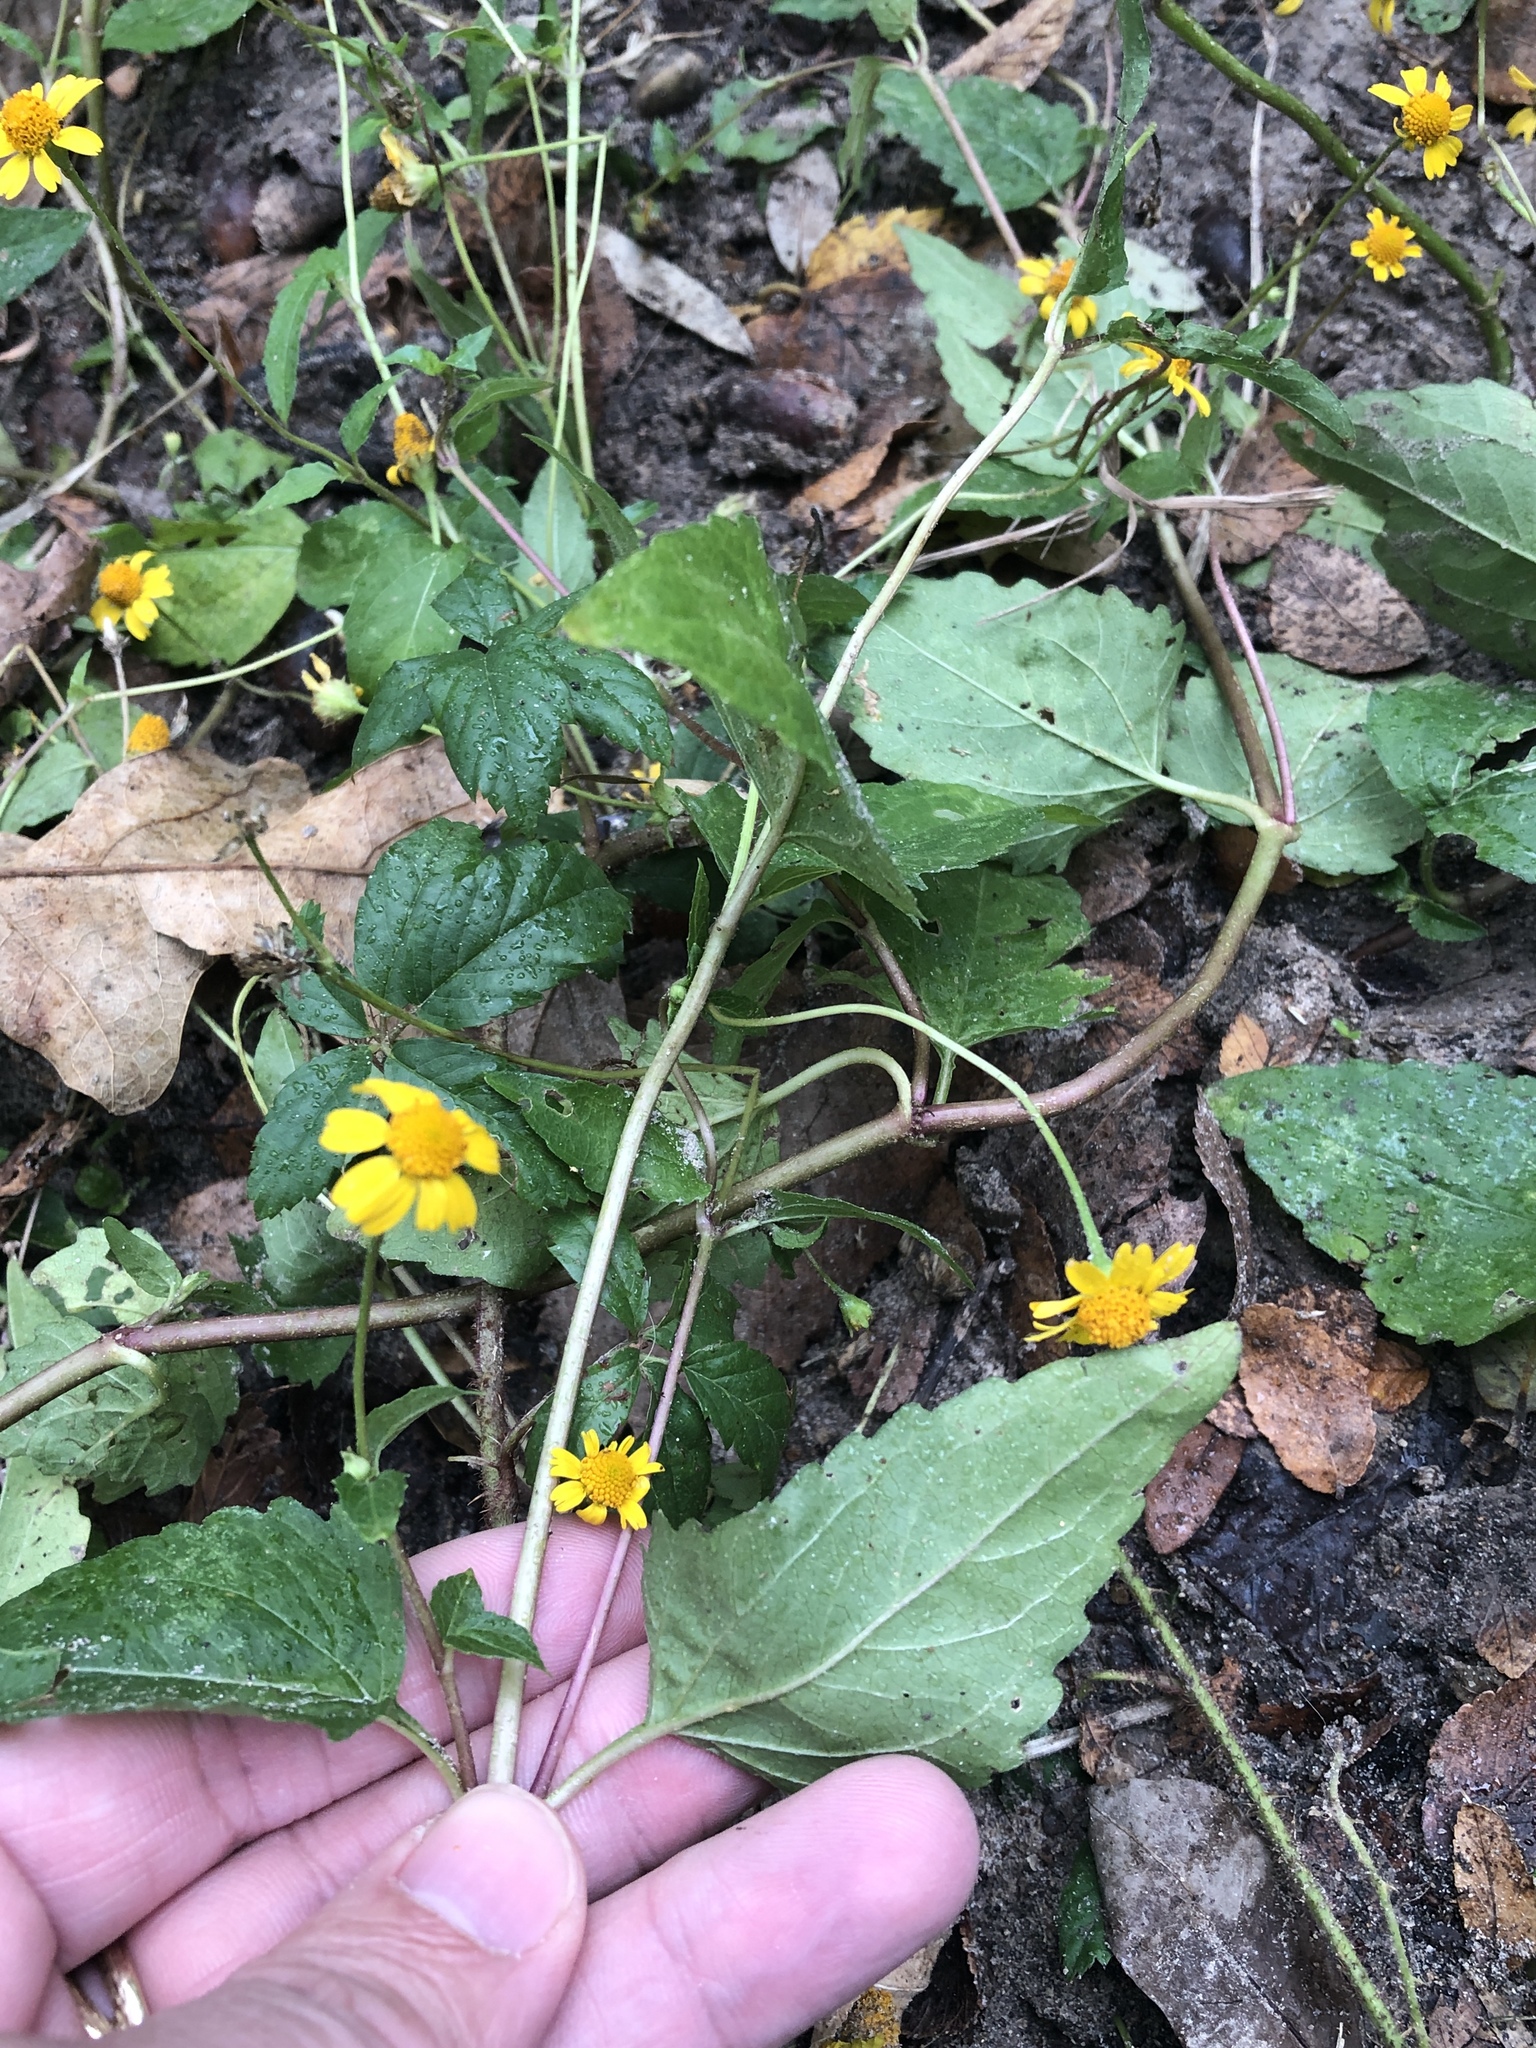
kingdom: Plantae
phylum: Tracheophyta
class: Magnoliopsida
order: Asterales
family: Asteraceae
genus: Acmella
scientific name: Acmella repens
